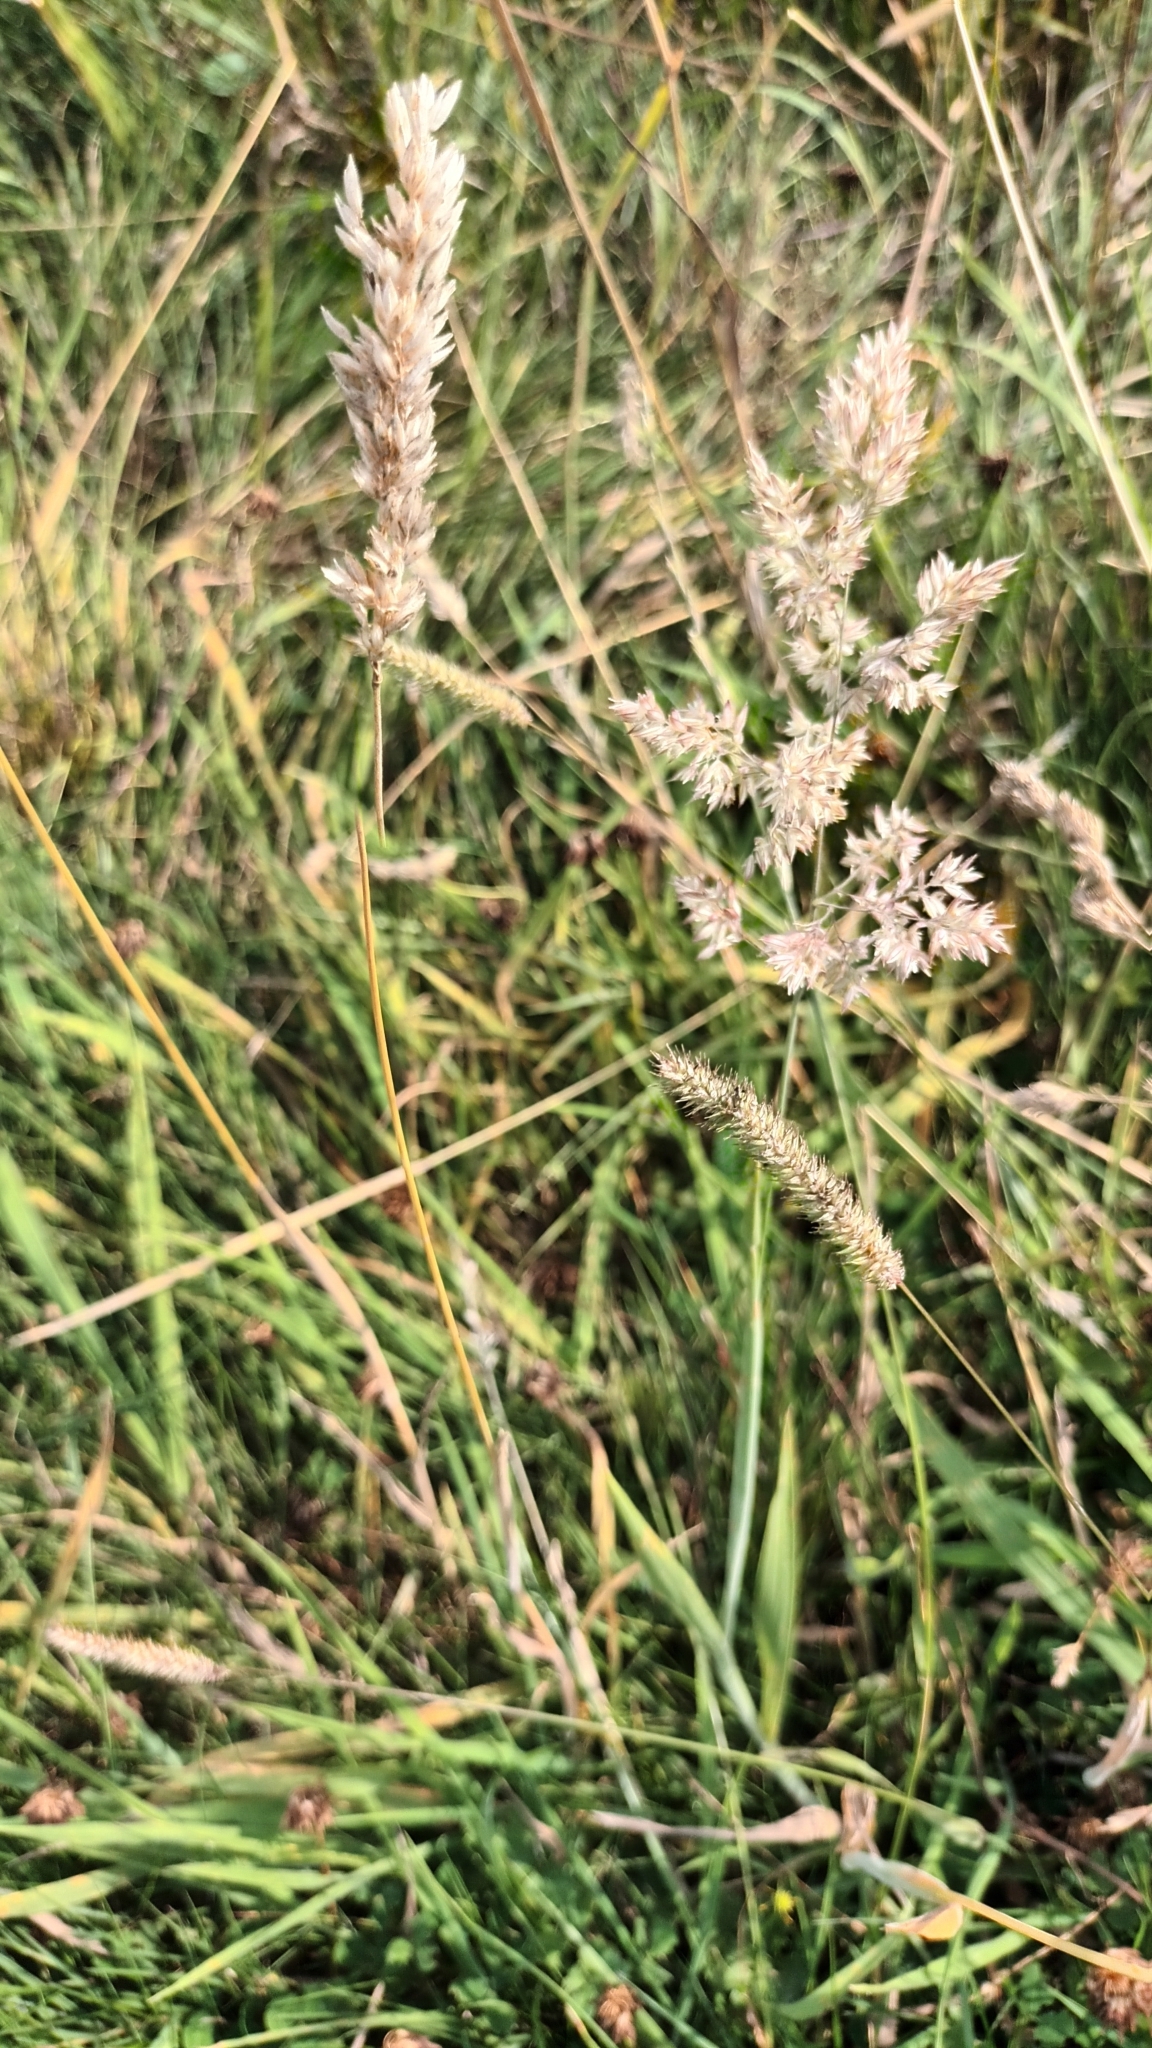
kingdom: Plantae
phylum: Tracheophyta
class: Liliopsida
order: Poales
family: Poaceae
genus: Holcus
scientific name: Holcus lanatus
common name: Yorkshire-fog
